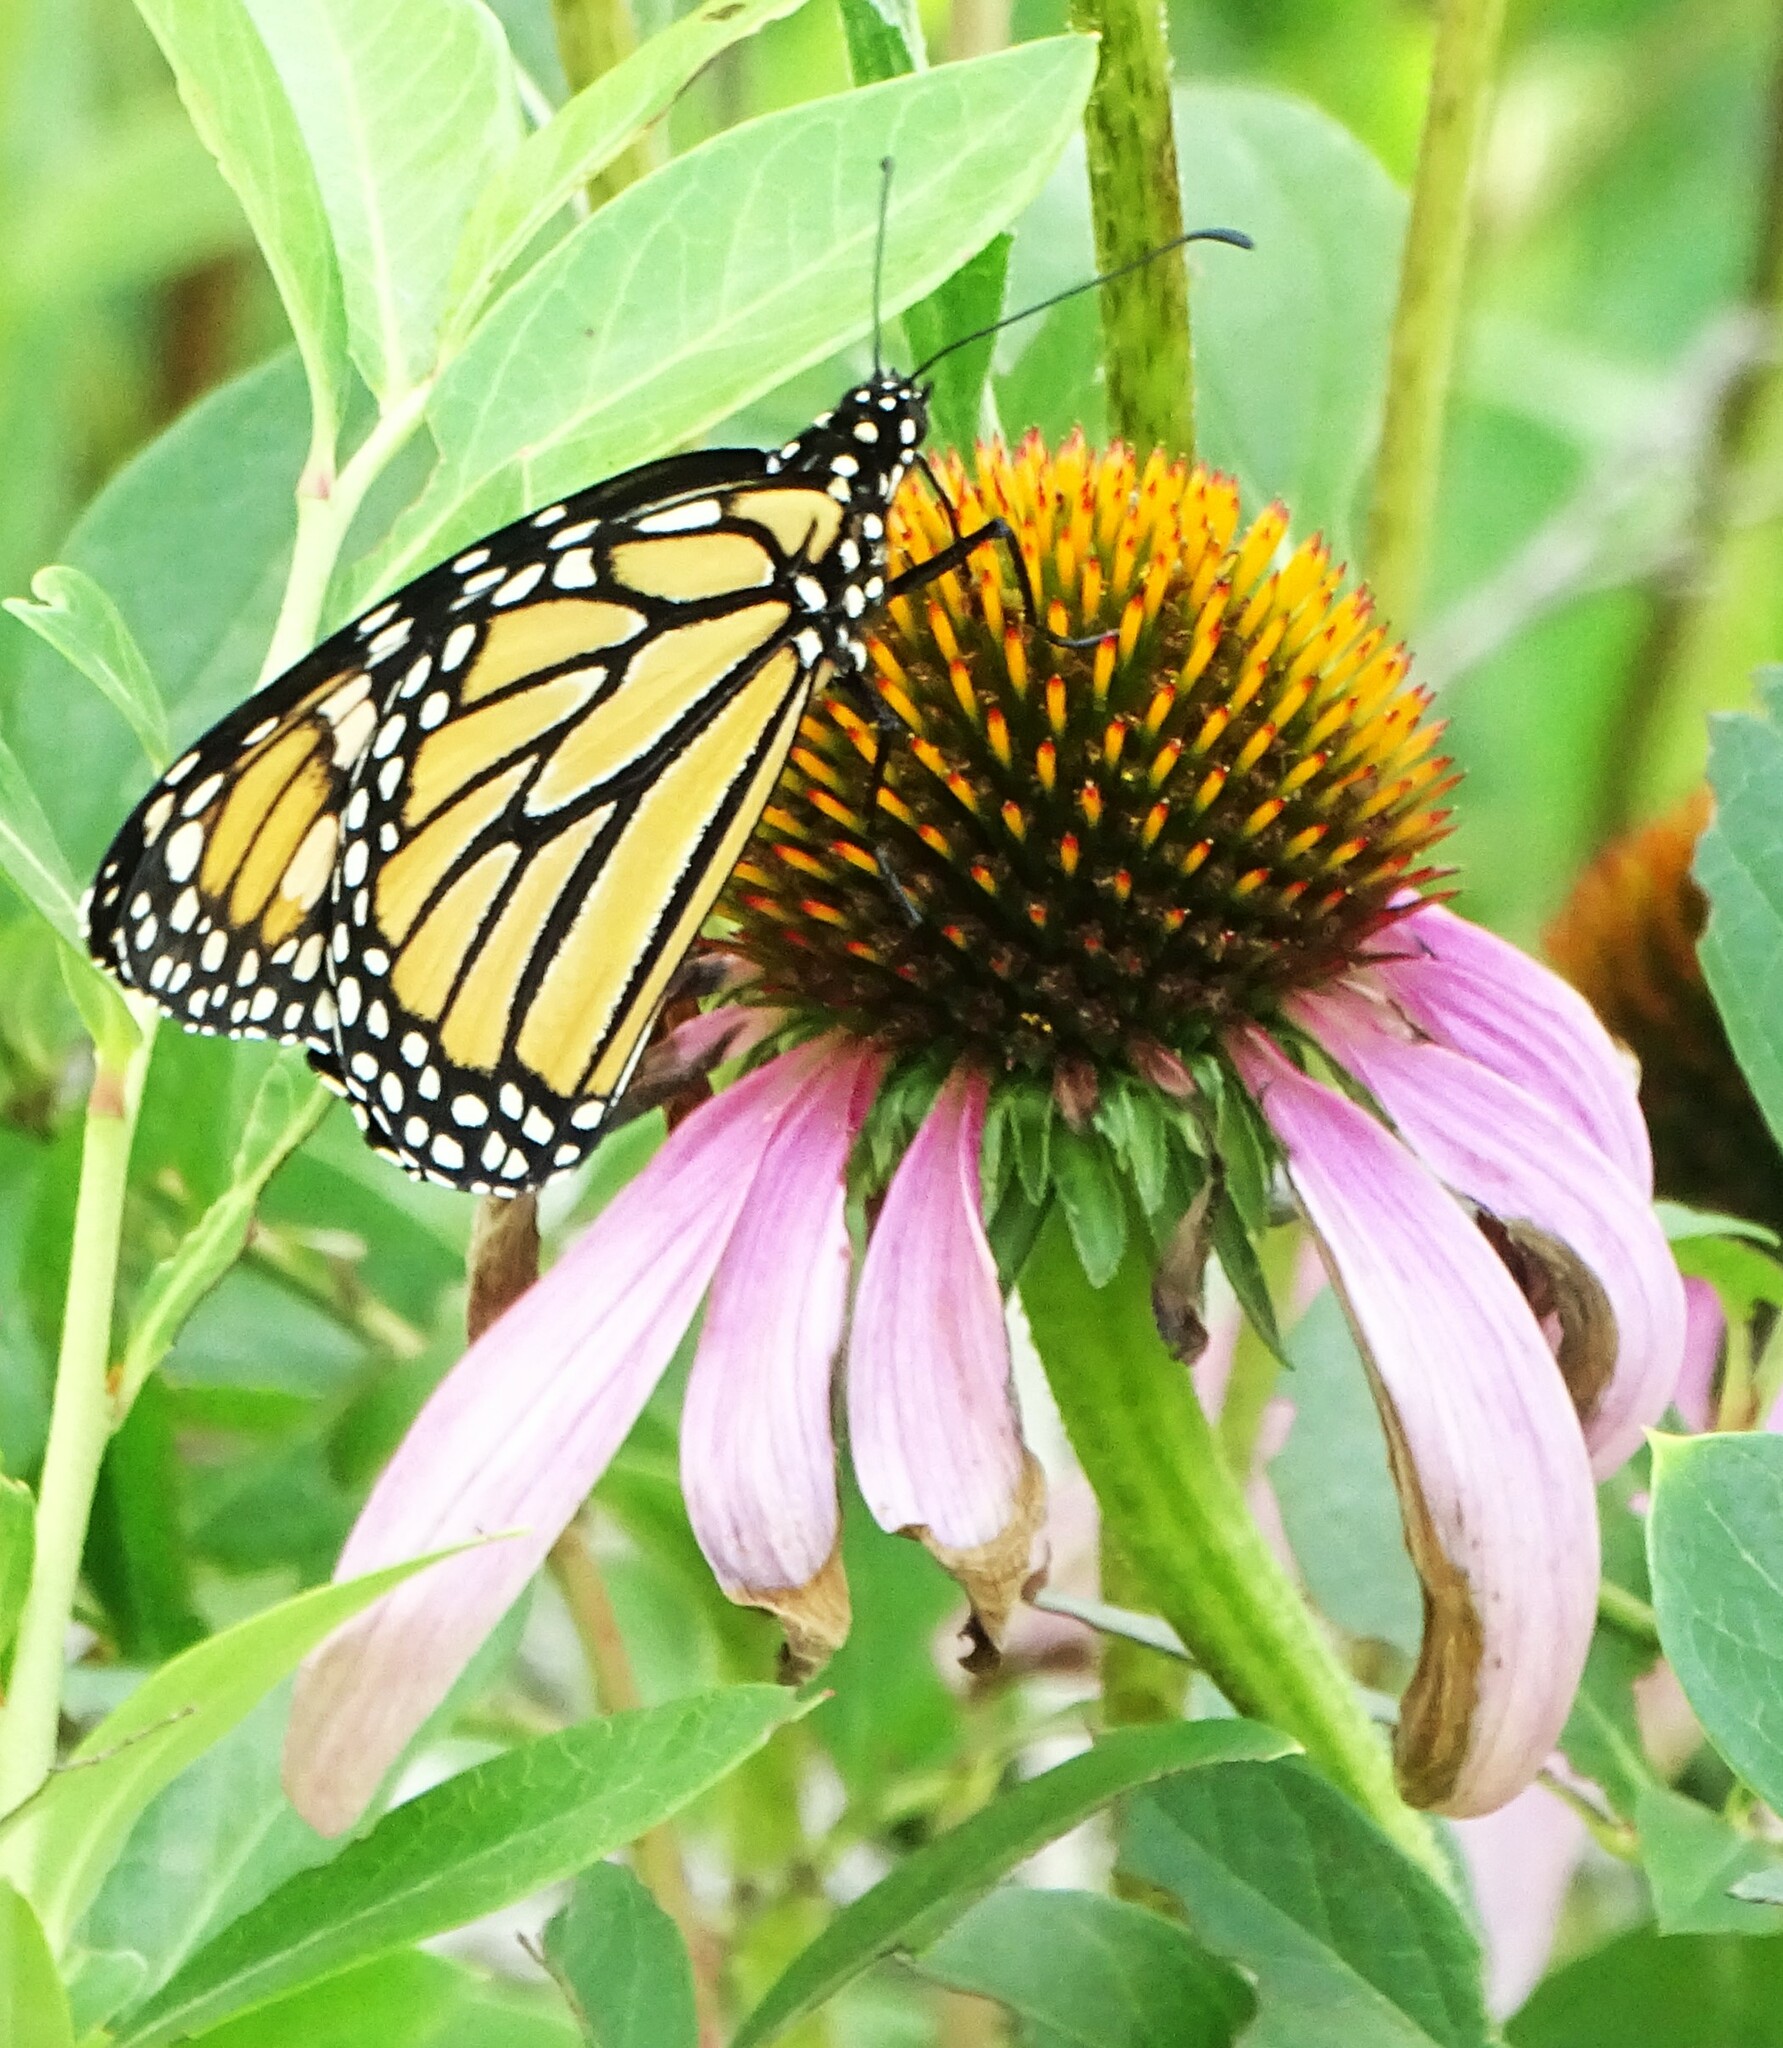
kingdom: Animalia
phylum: Arthropoda
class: Insecta
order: Lepidoptera
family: Nymphalidae
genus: Danaus
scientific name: Danaus plexippus
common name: Monarch
